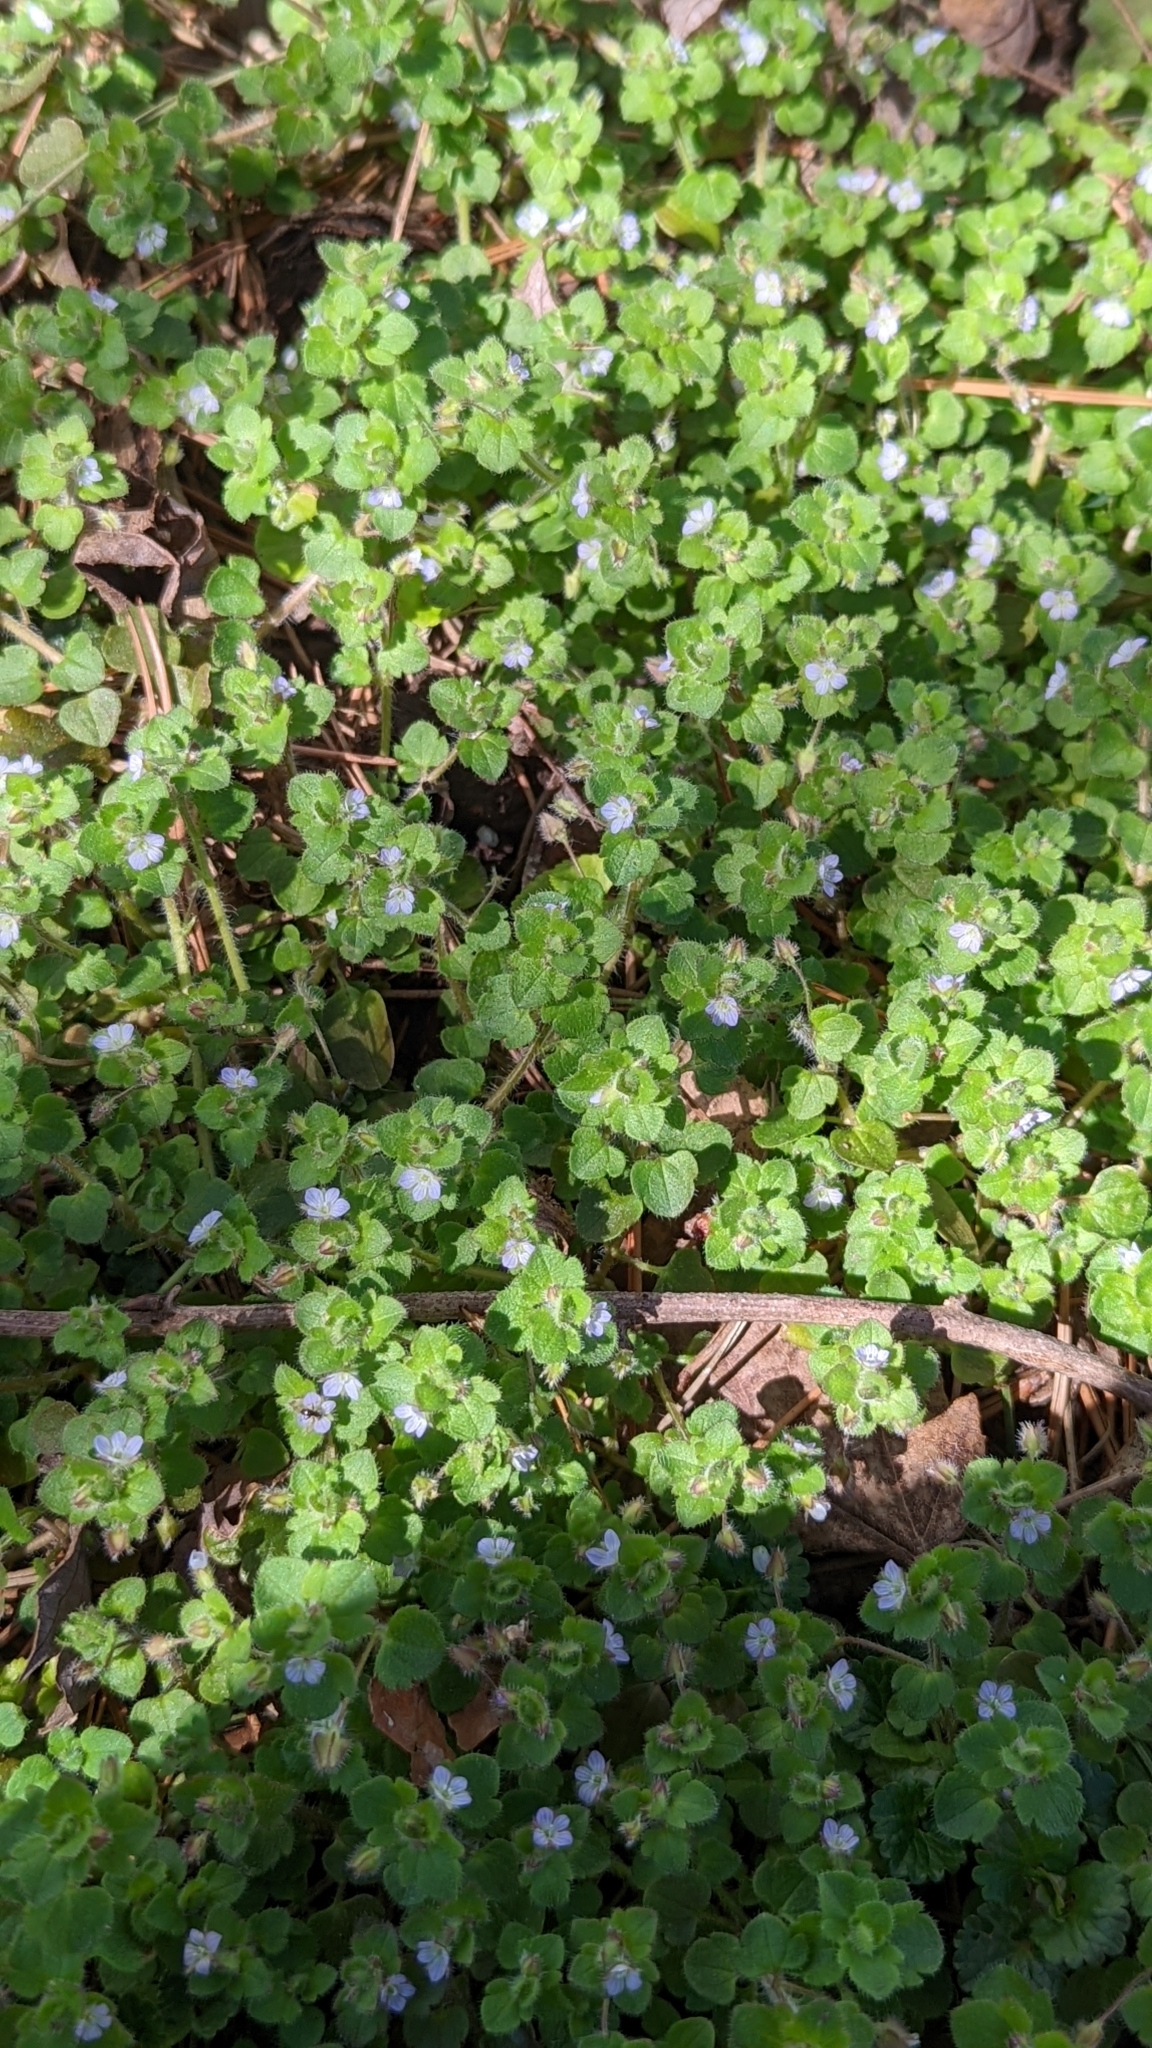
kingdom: Plantae
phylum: Tracheophyta
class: Magnoliopsida
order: Lamiales
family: Plantaginaceae
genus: Veronica
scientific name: Veronica hederifolia
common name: Ivy-leaved speedwell
